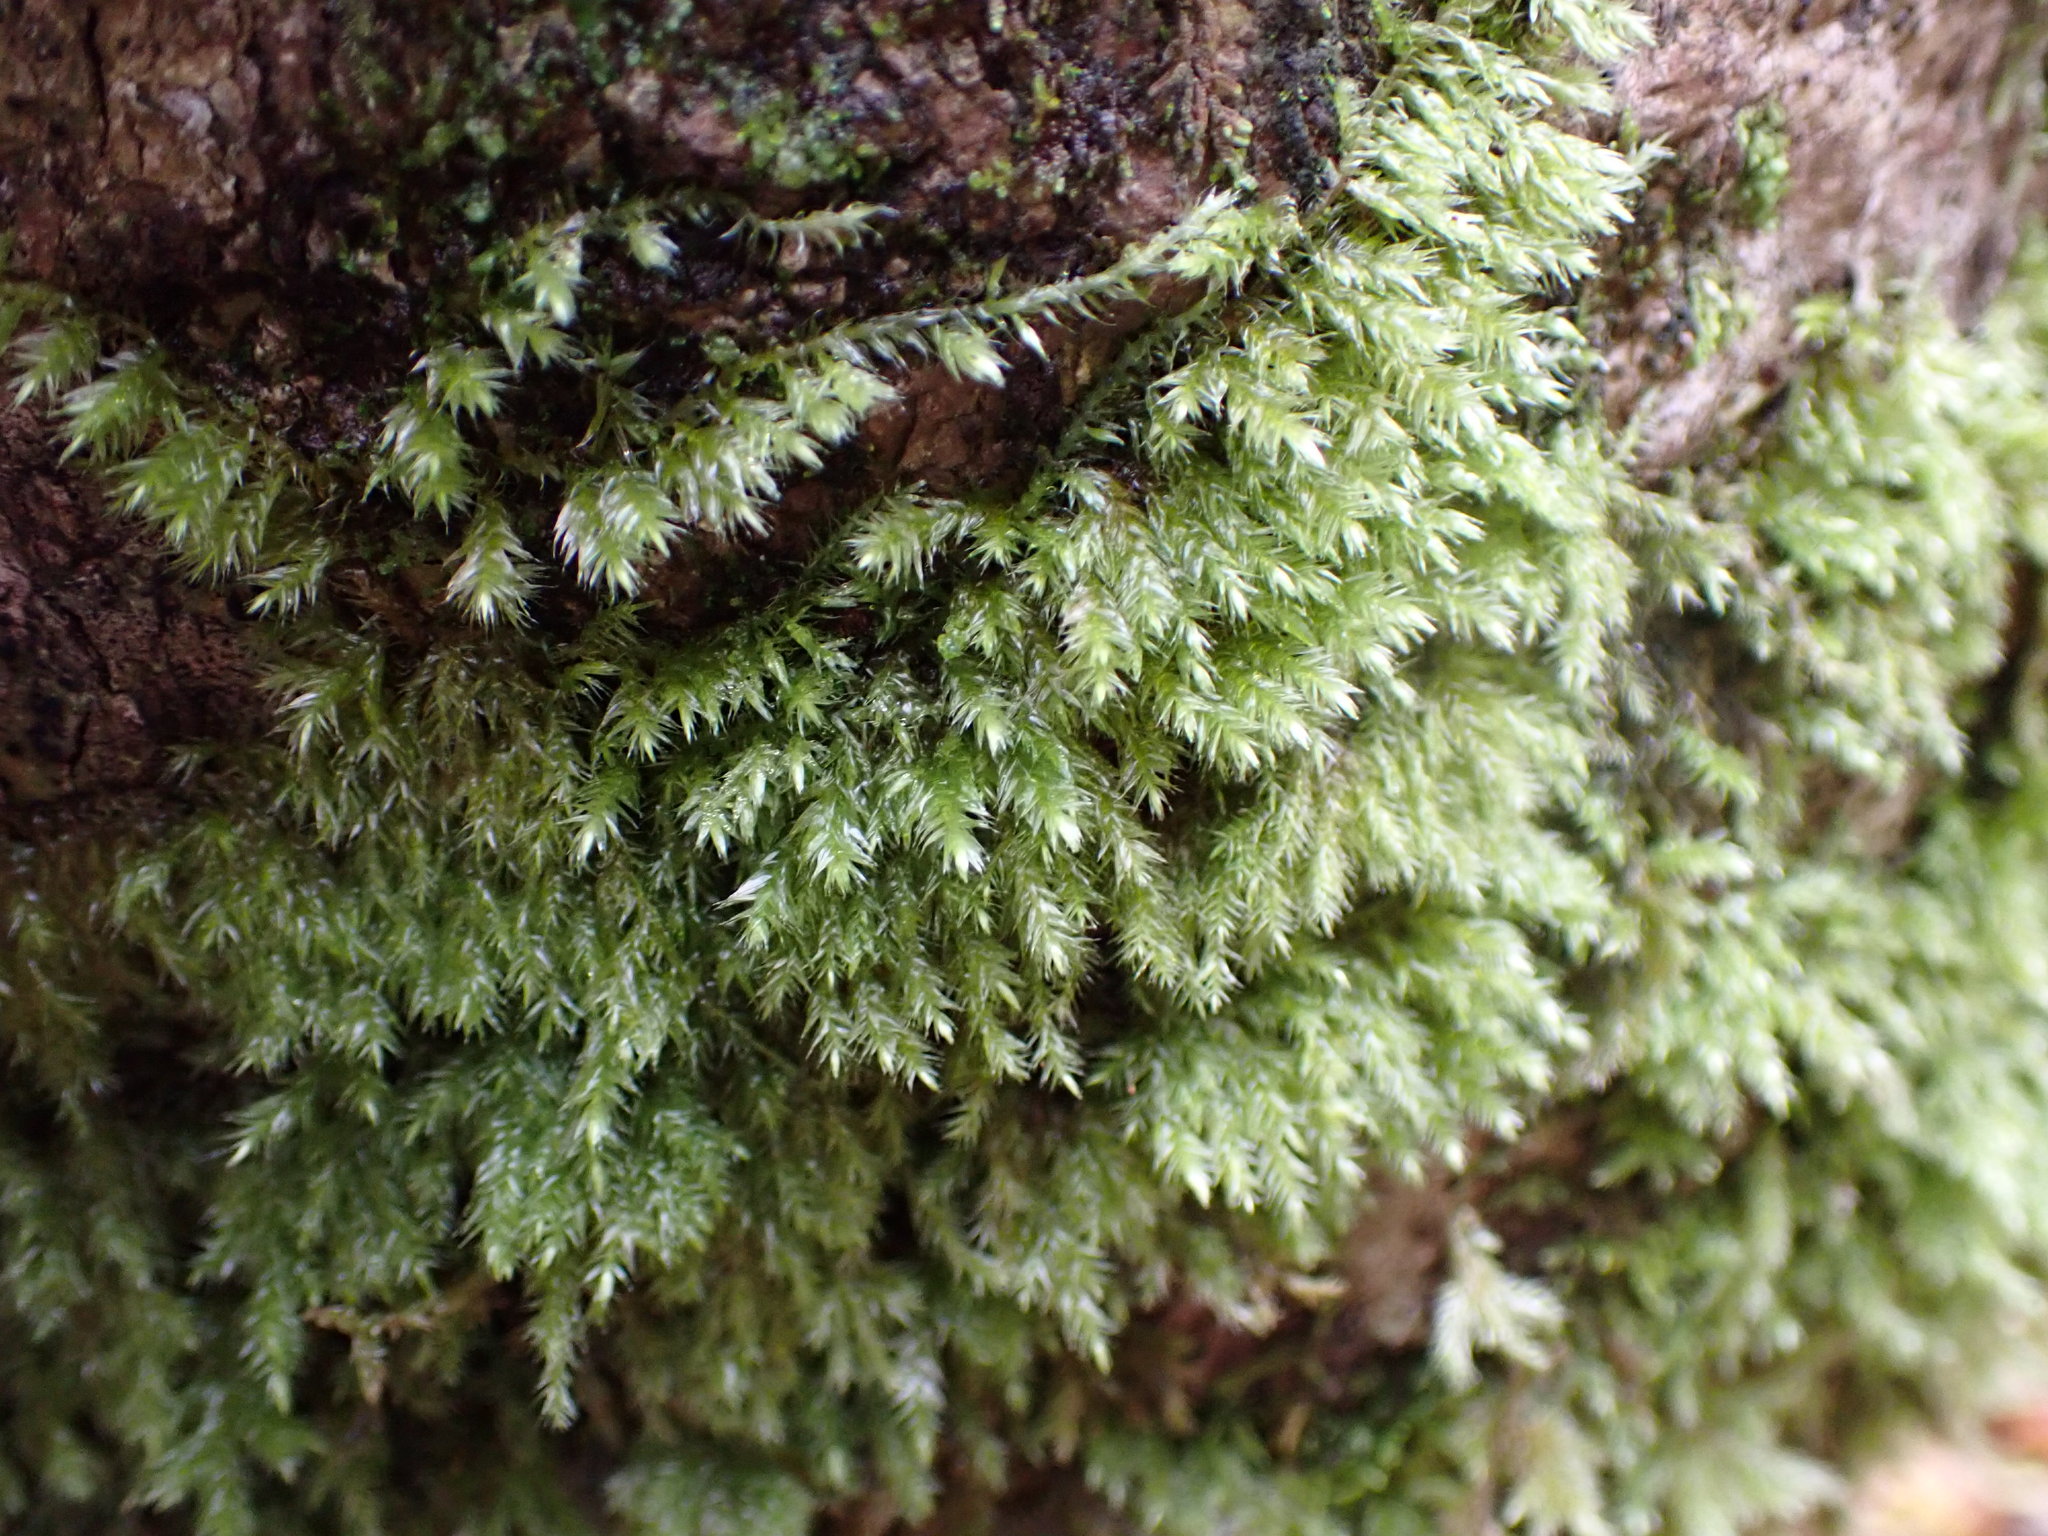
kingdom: Plantae
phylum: Bryophyta
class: Bryopsida
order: Hypnales
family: Lembophyllaceae
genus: Pseudisothecium
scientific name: Pseudisothecium stoloniferum
